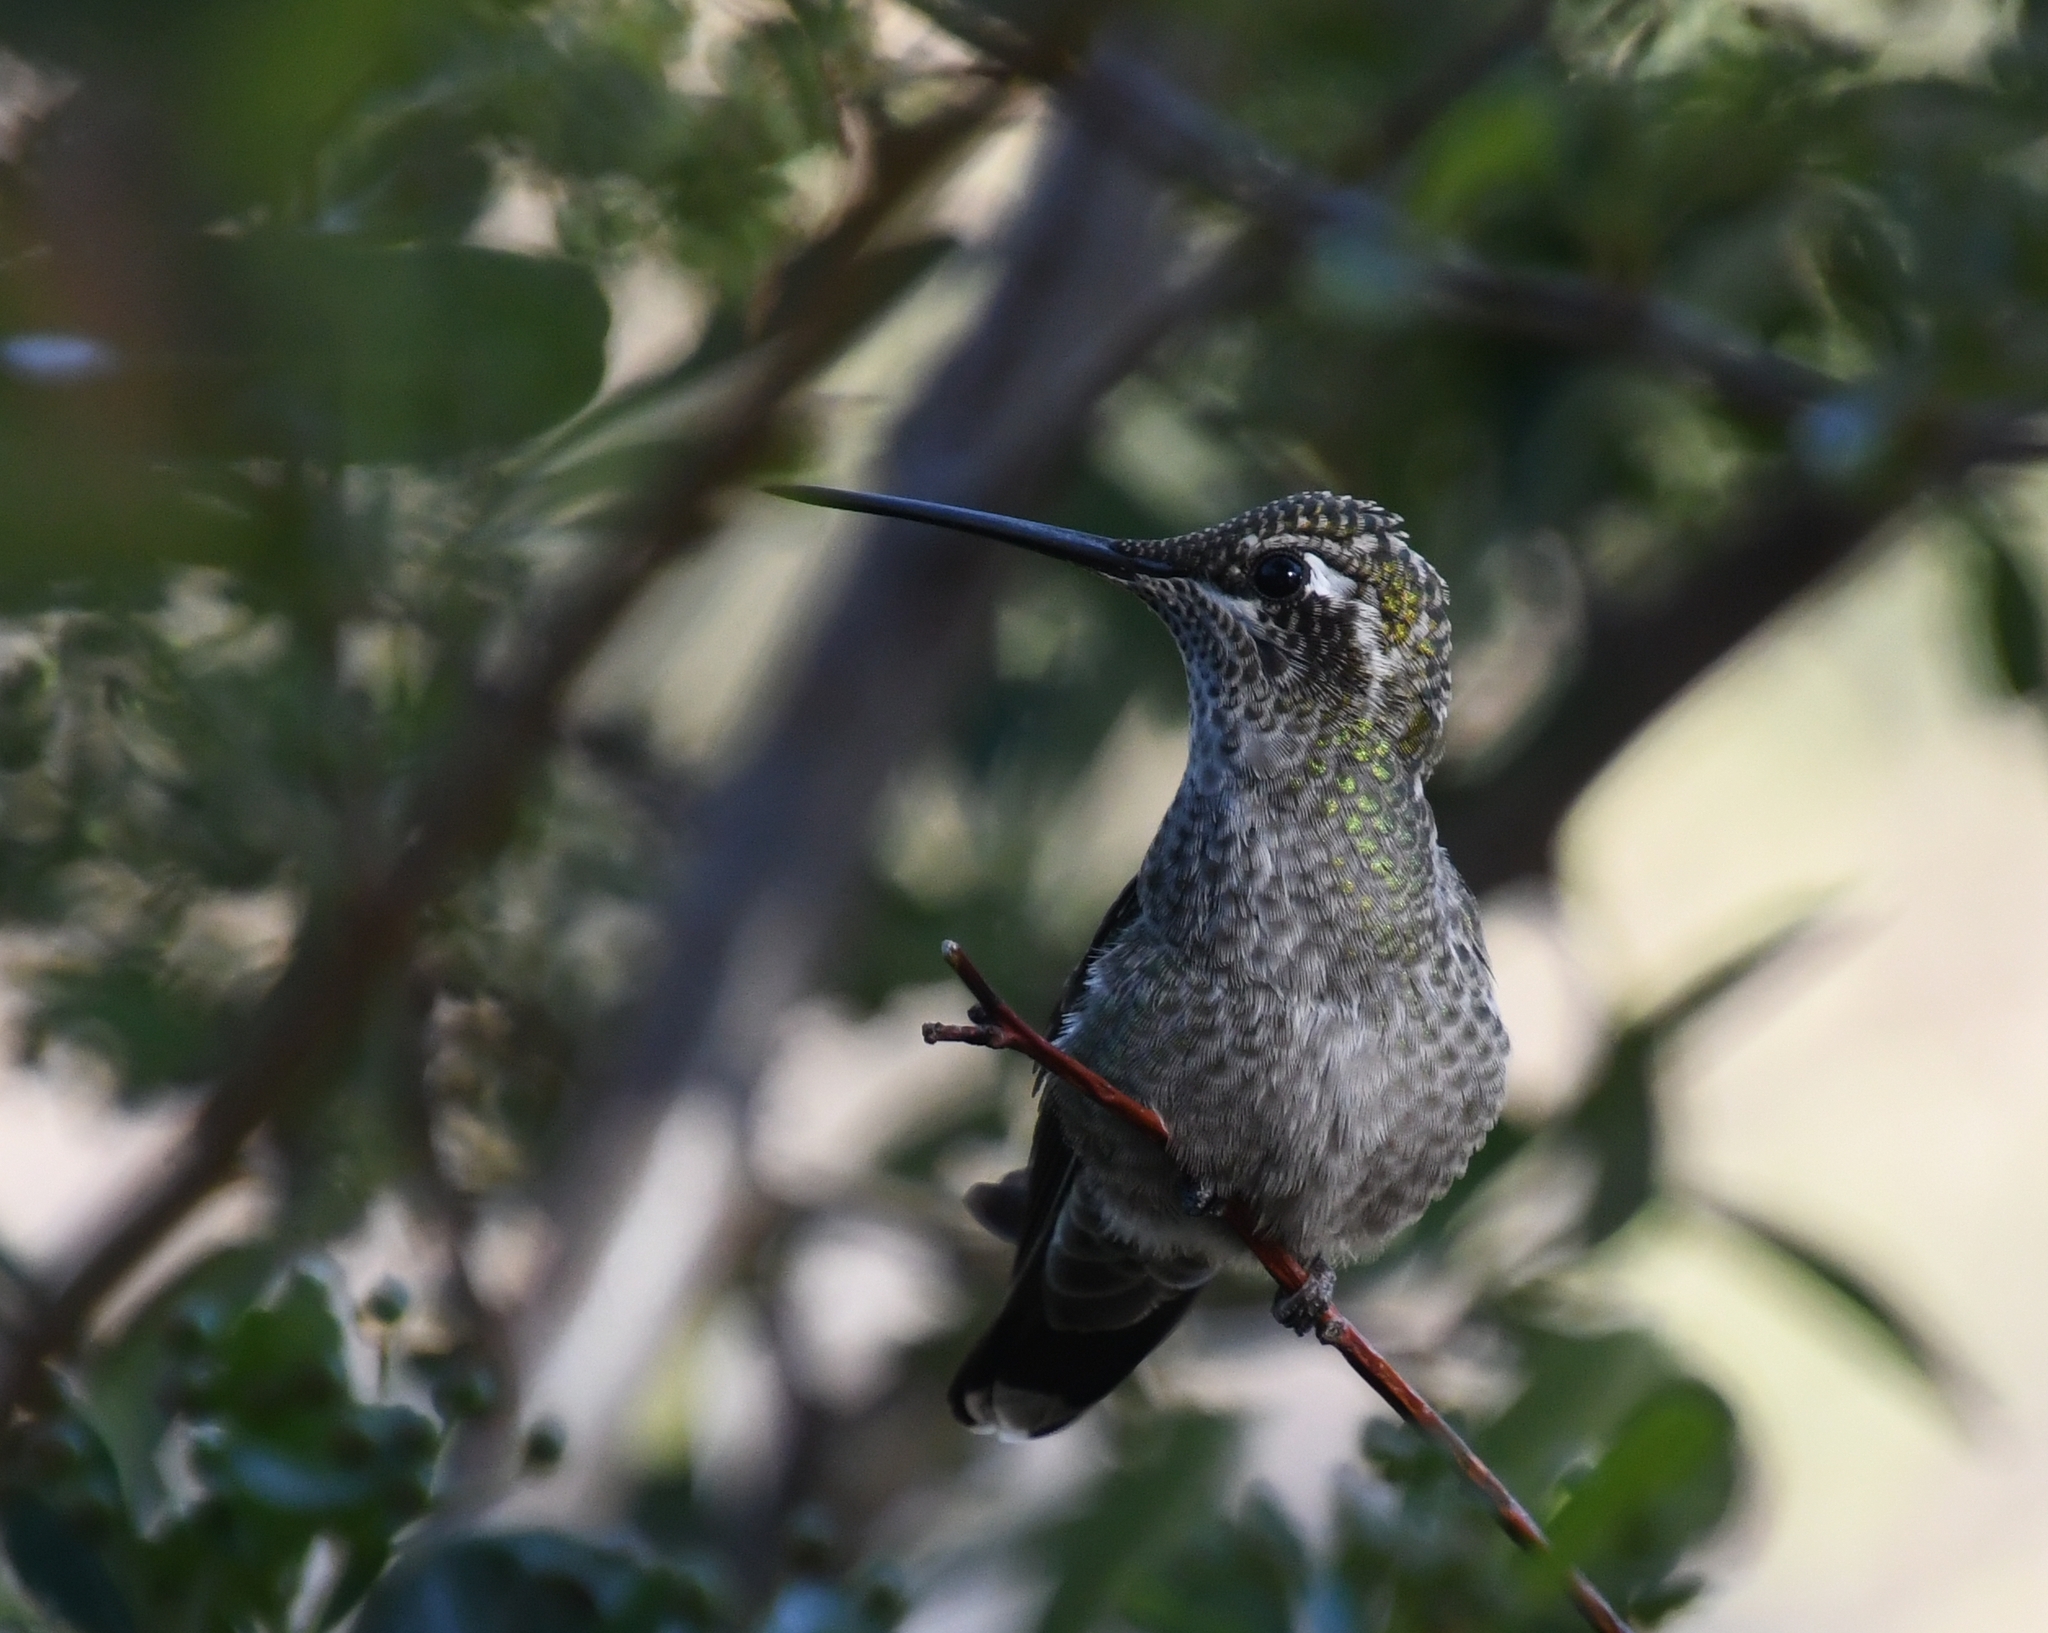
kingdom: Animalia
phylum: Chordata
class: Aves
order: Apodiformes
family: Trochilidae
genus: Eugenes
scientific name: Eugenes fulgens
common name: Magnificent hummingbird
